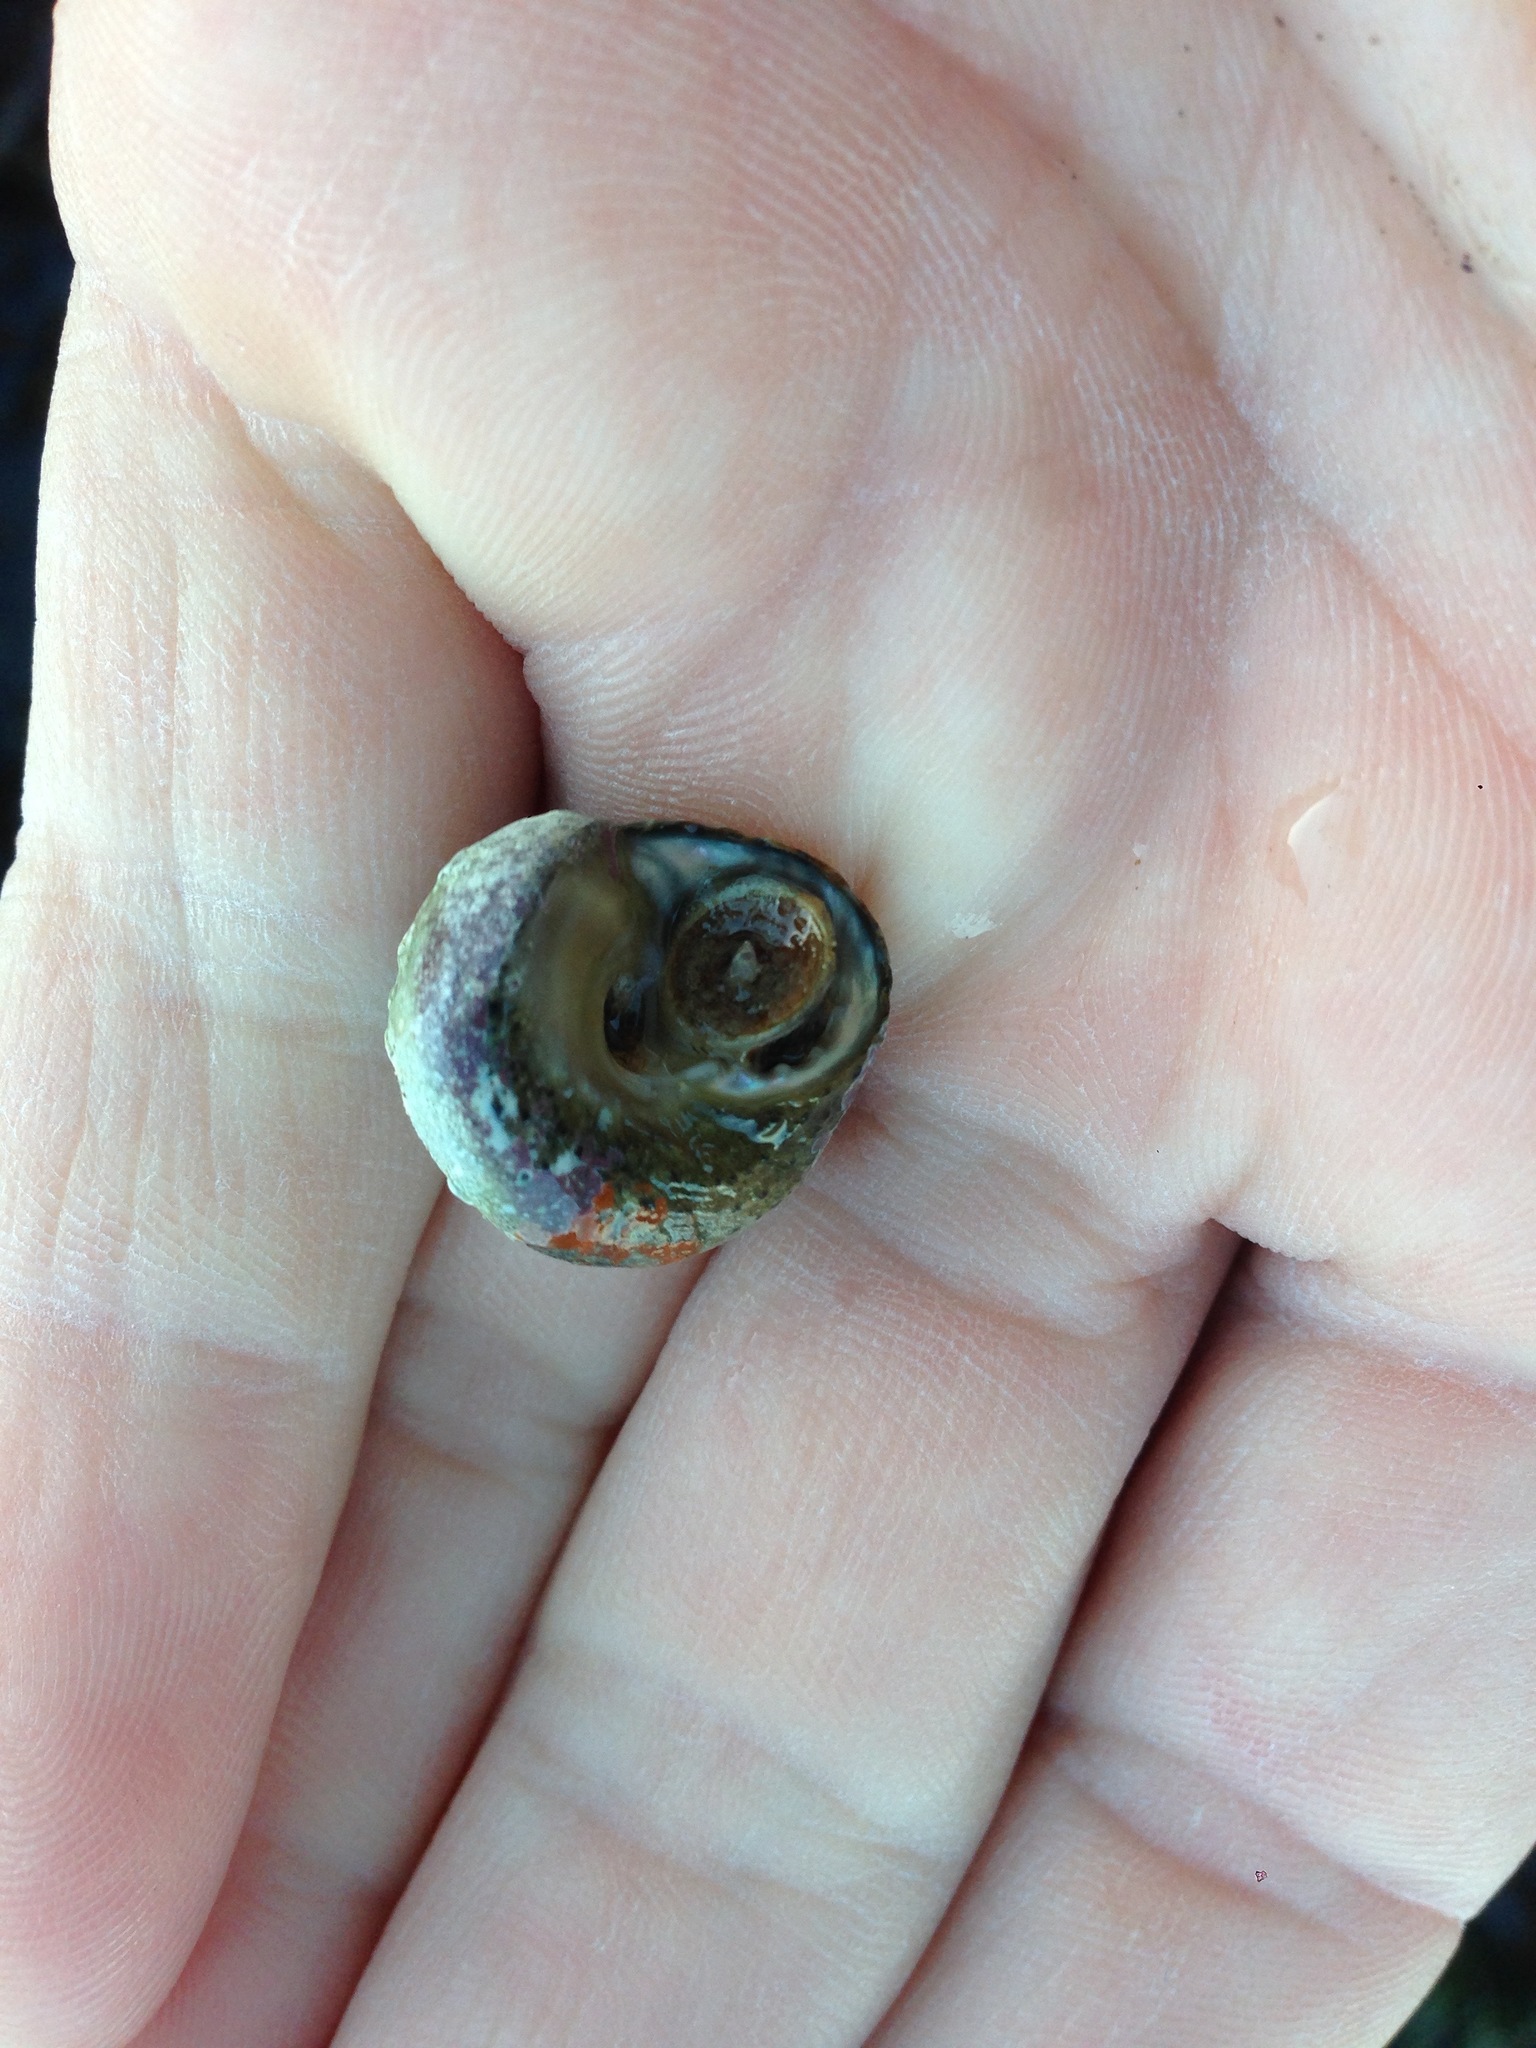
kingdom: Animalia
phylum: Mollusca
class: Gastropoda
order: Trochida
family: Tegulidae
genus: Tegula
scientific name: Tegula eiseni
